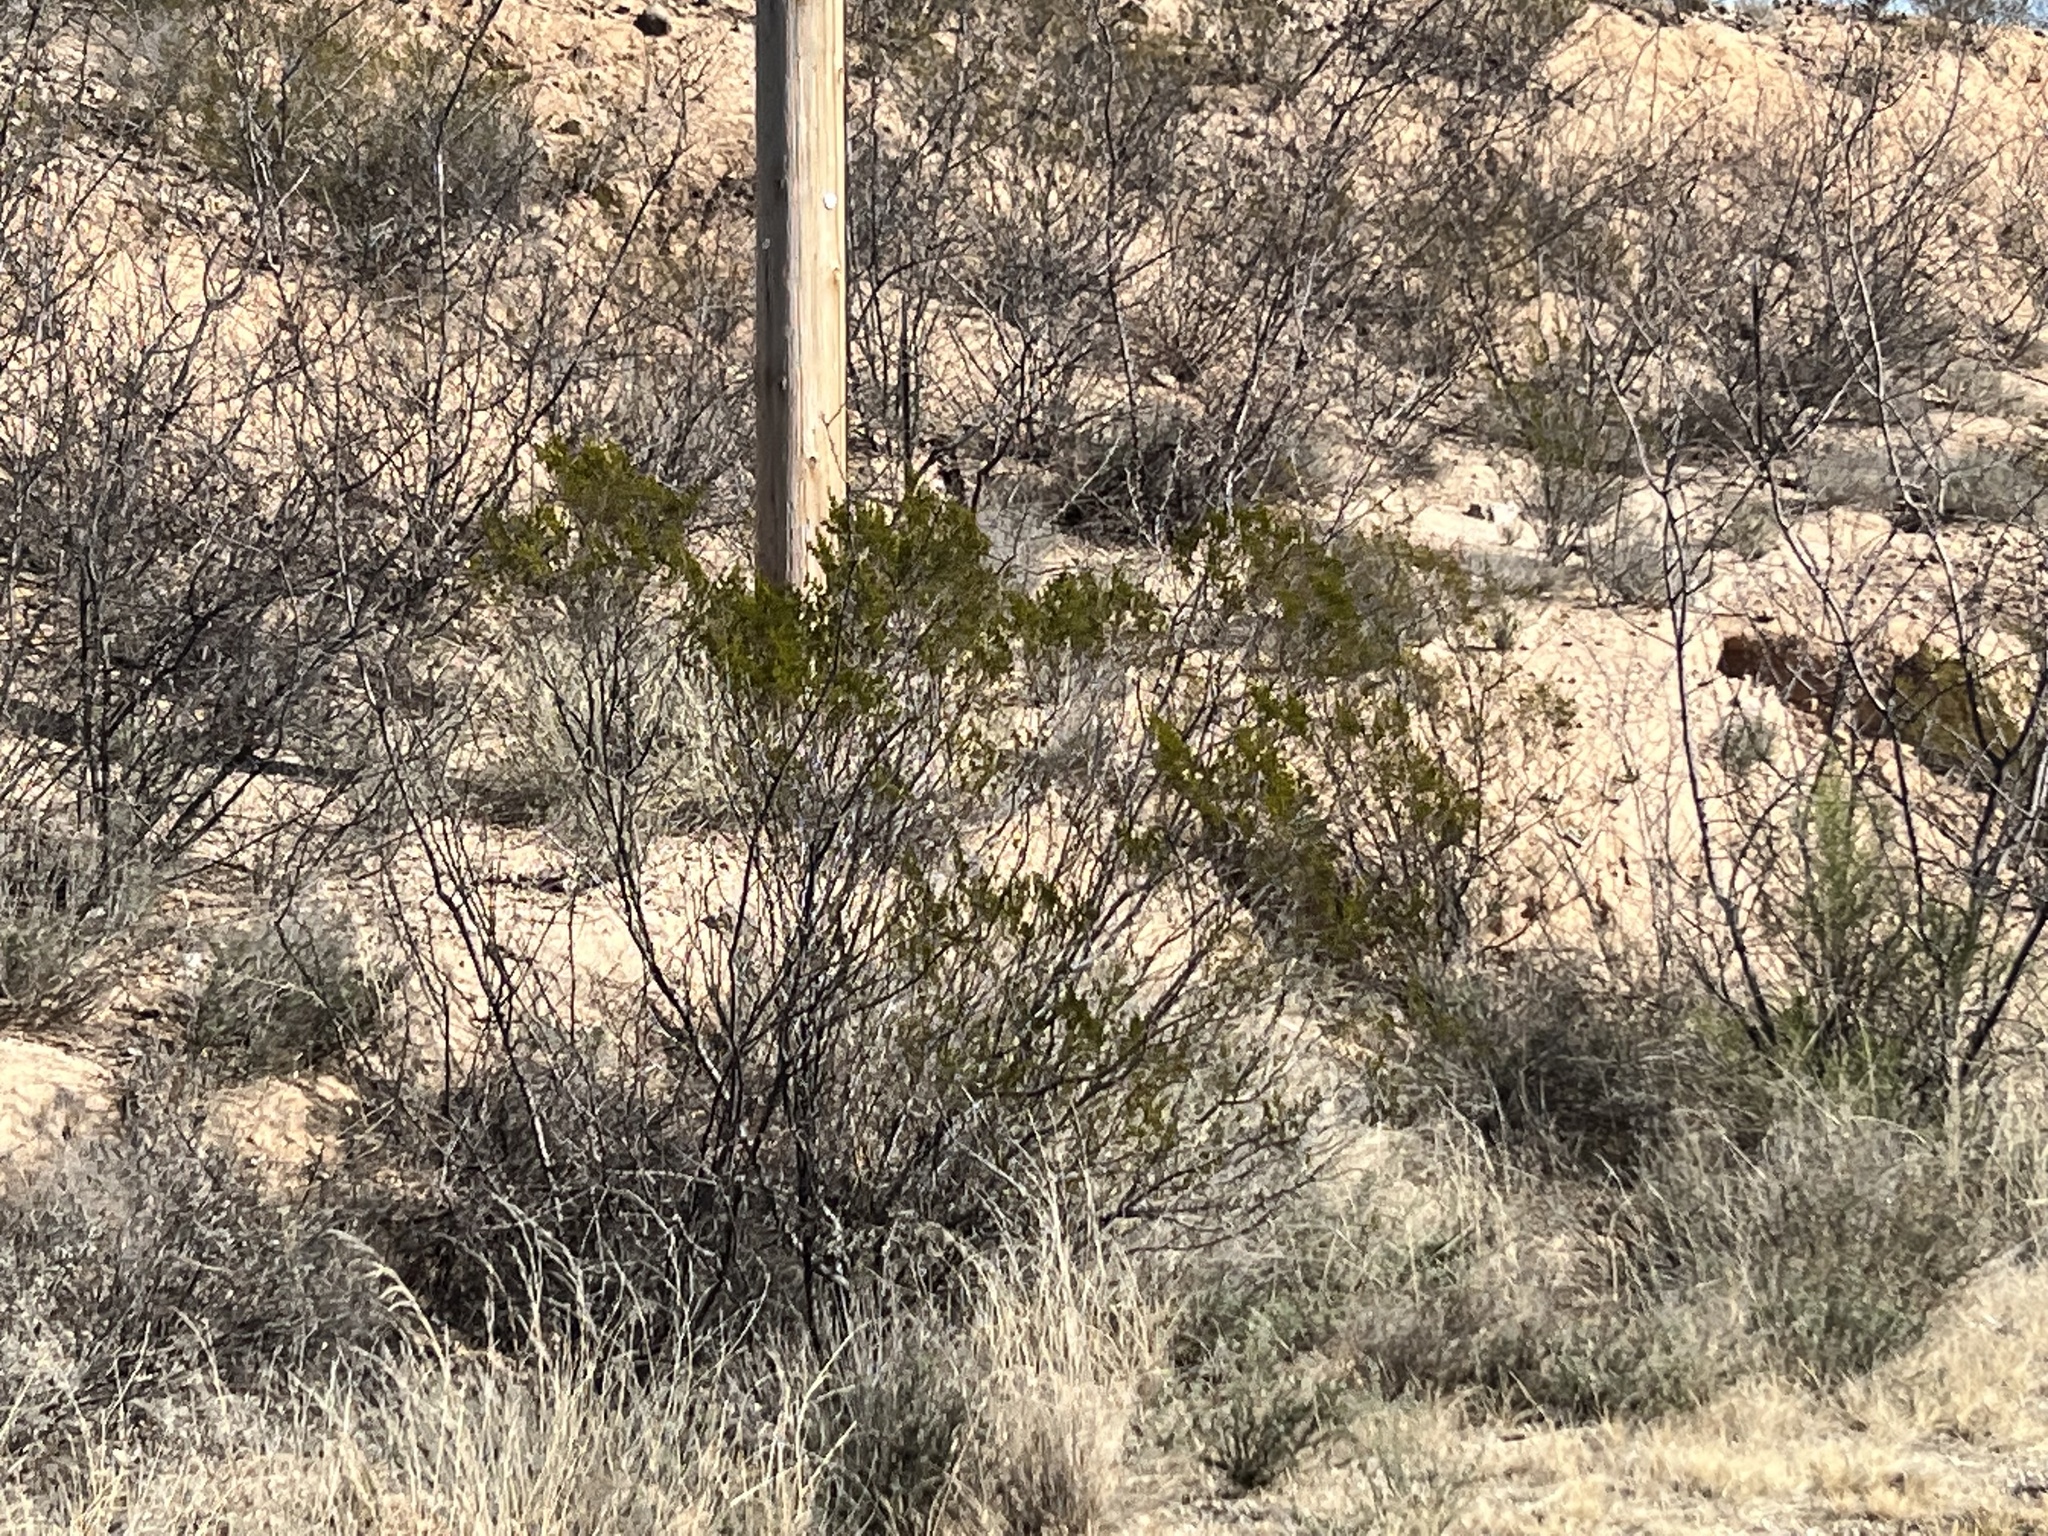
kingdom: Plantae
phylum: Tracheophyta
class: Magnoliopsida
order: Zygophyllales
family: Zygophyllaceae
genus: Larrea
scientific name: Larrea tridentata
